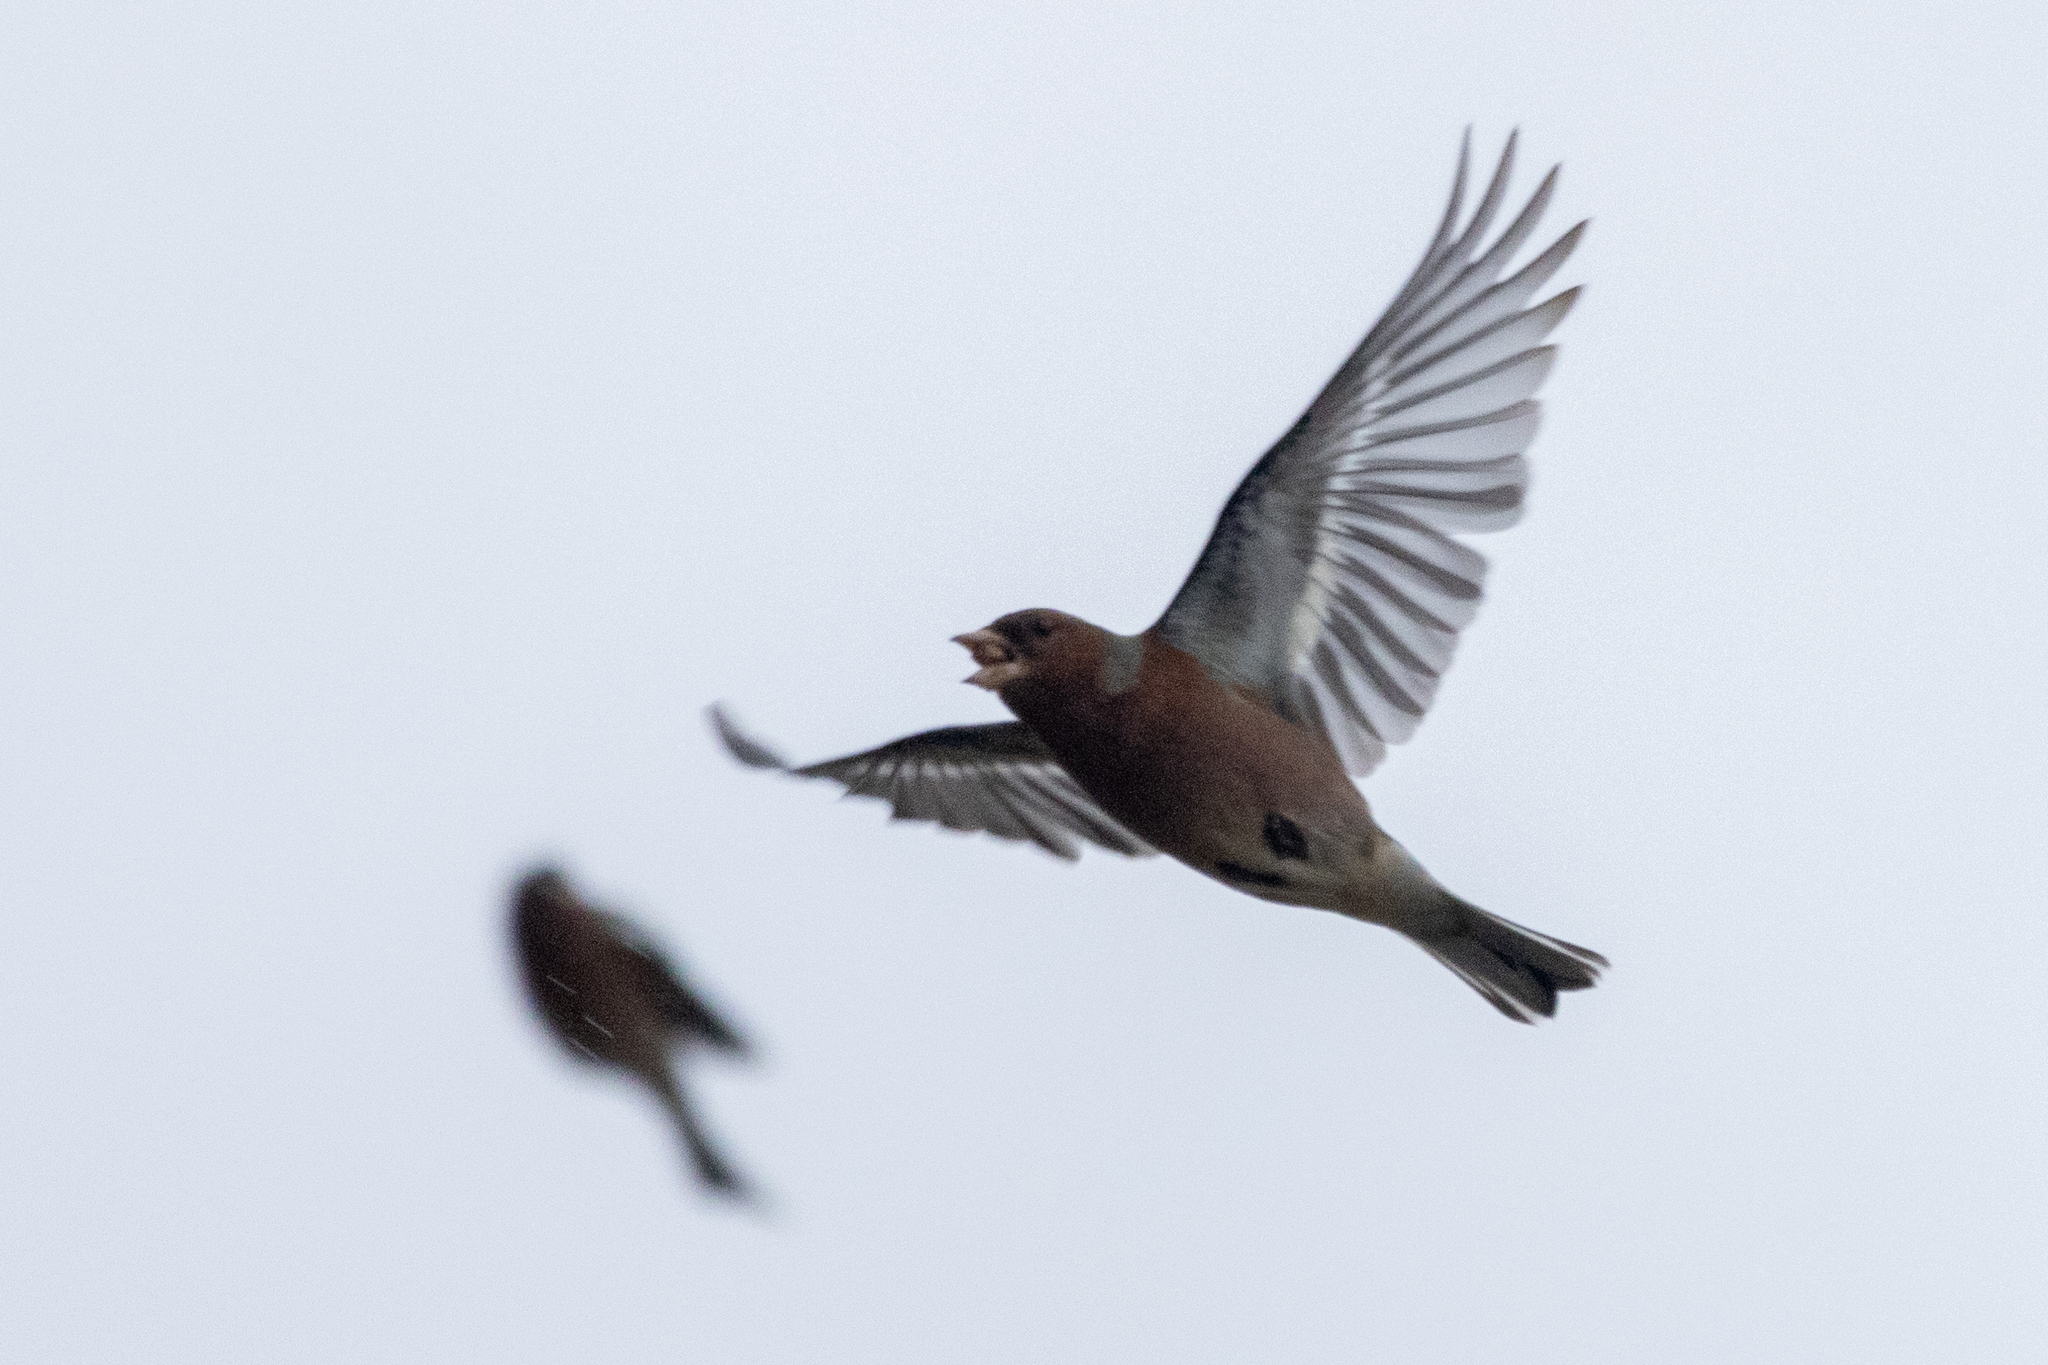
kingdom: Animalia
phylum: Chordata
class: Aves
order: Passeriformes
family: Fringillidae
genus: Fringilla
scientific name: Fringilla coelebs
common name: Common chaffinch
